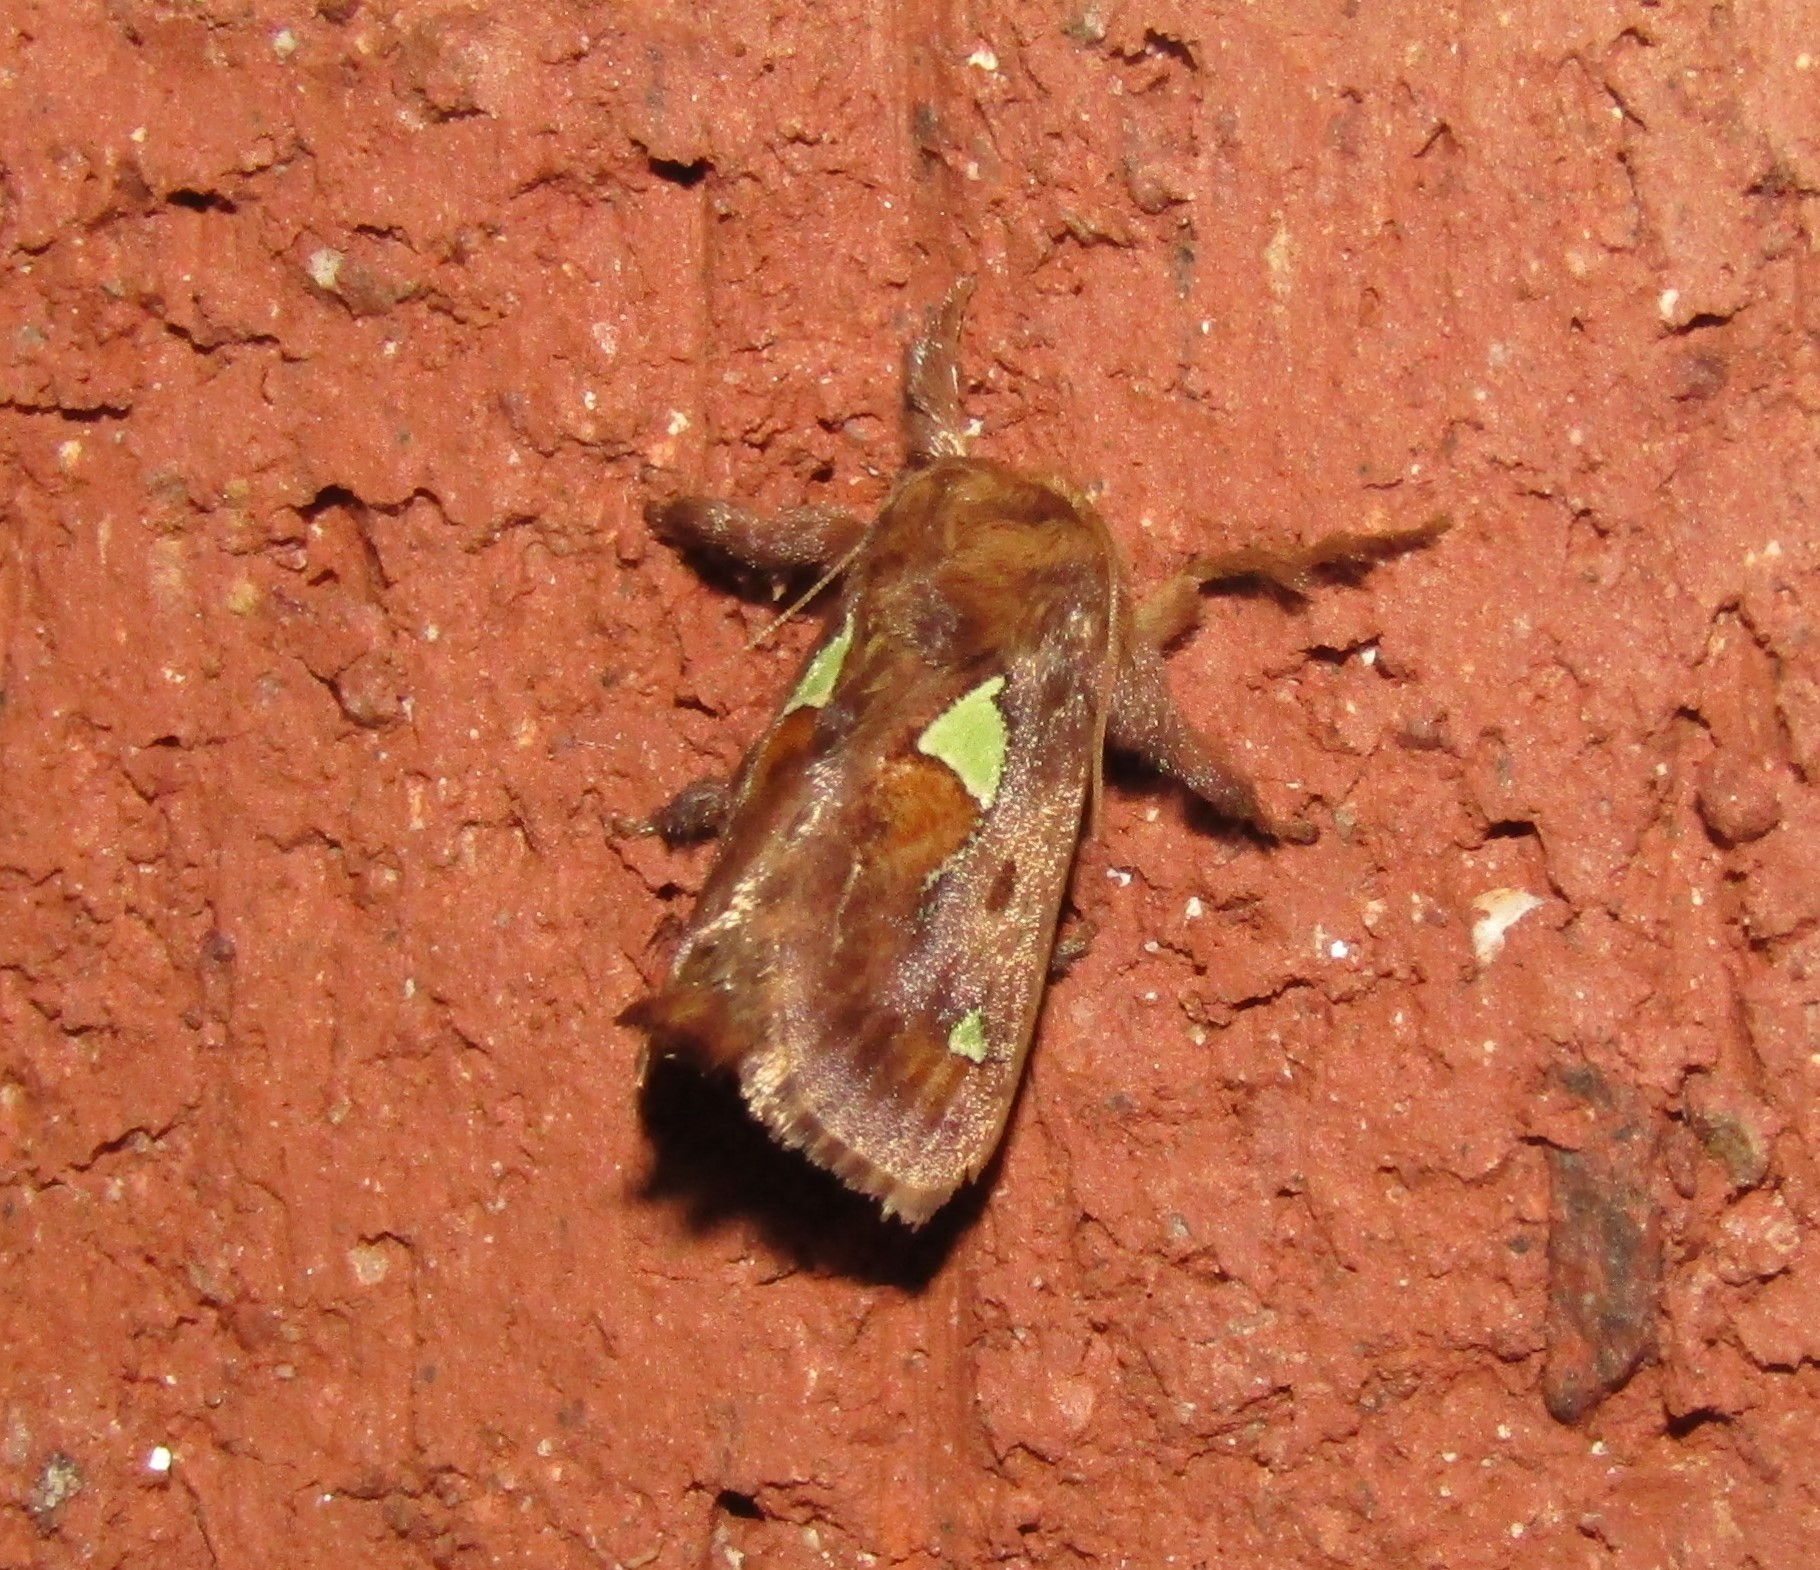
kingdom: Animalia
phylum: Arthropoda
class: Insecta
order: Lepidoptera
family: Limacodidae
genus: Euclea
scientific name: Euclea delphinii
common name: Spiny oak-slug moth
